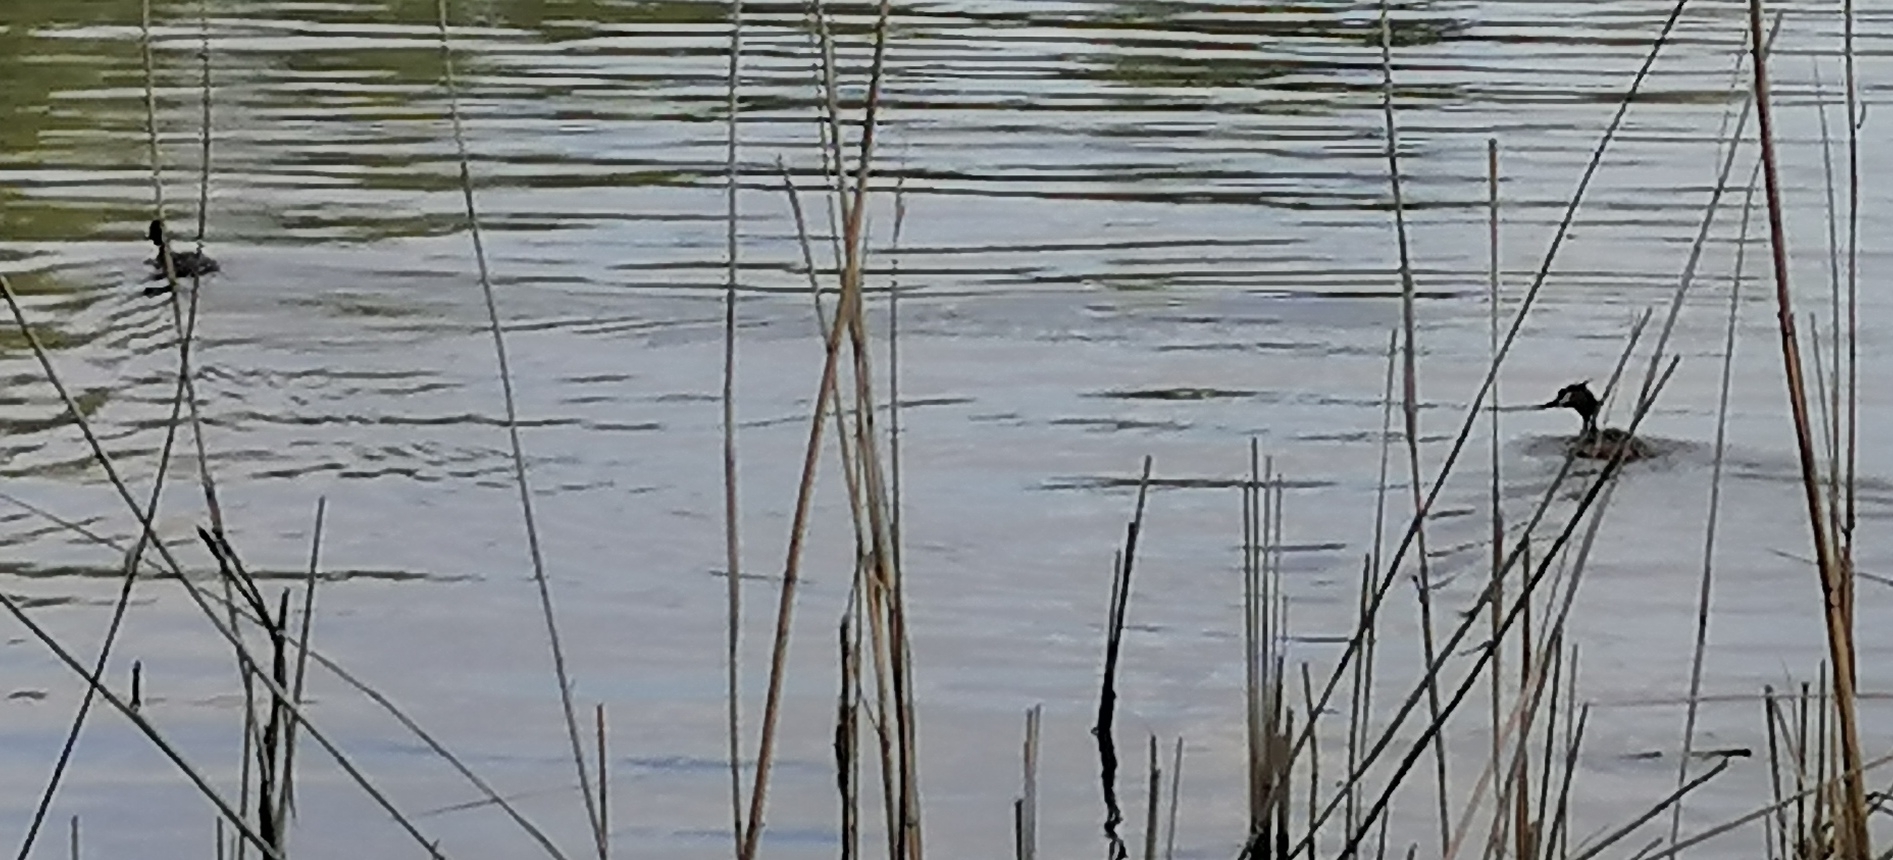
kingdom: Animalia
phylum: Chordata
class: Aves
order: Podicipediformes
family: Podicipedidae
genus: Podiceps
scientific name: Podiceps cristatus
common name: Great crested grebe
